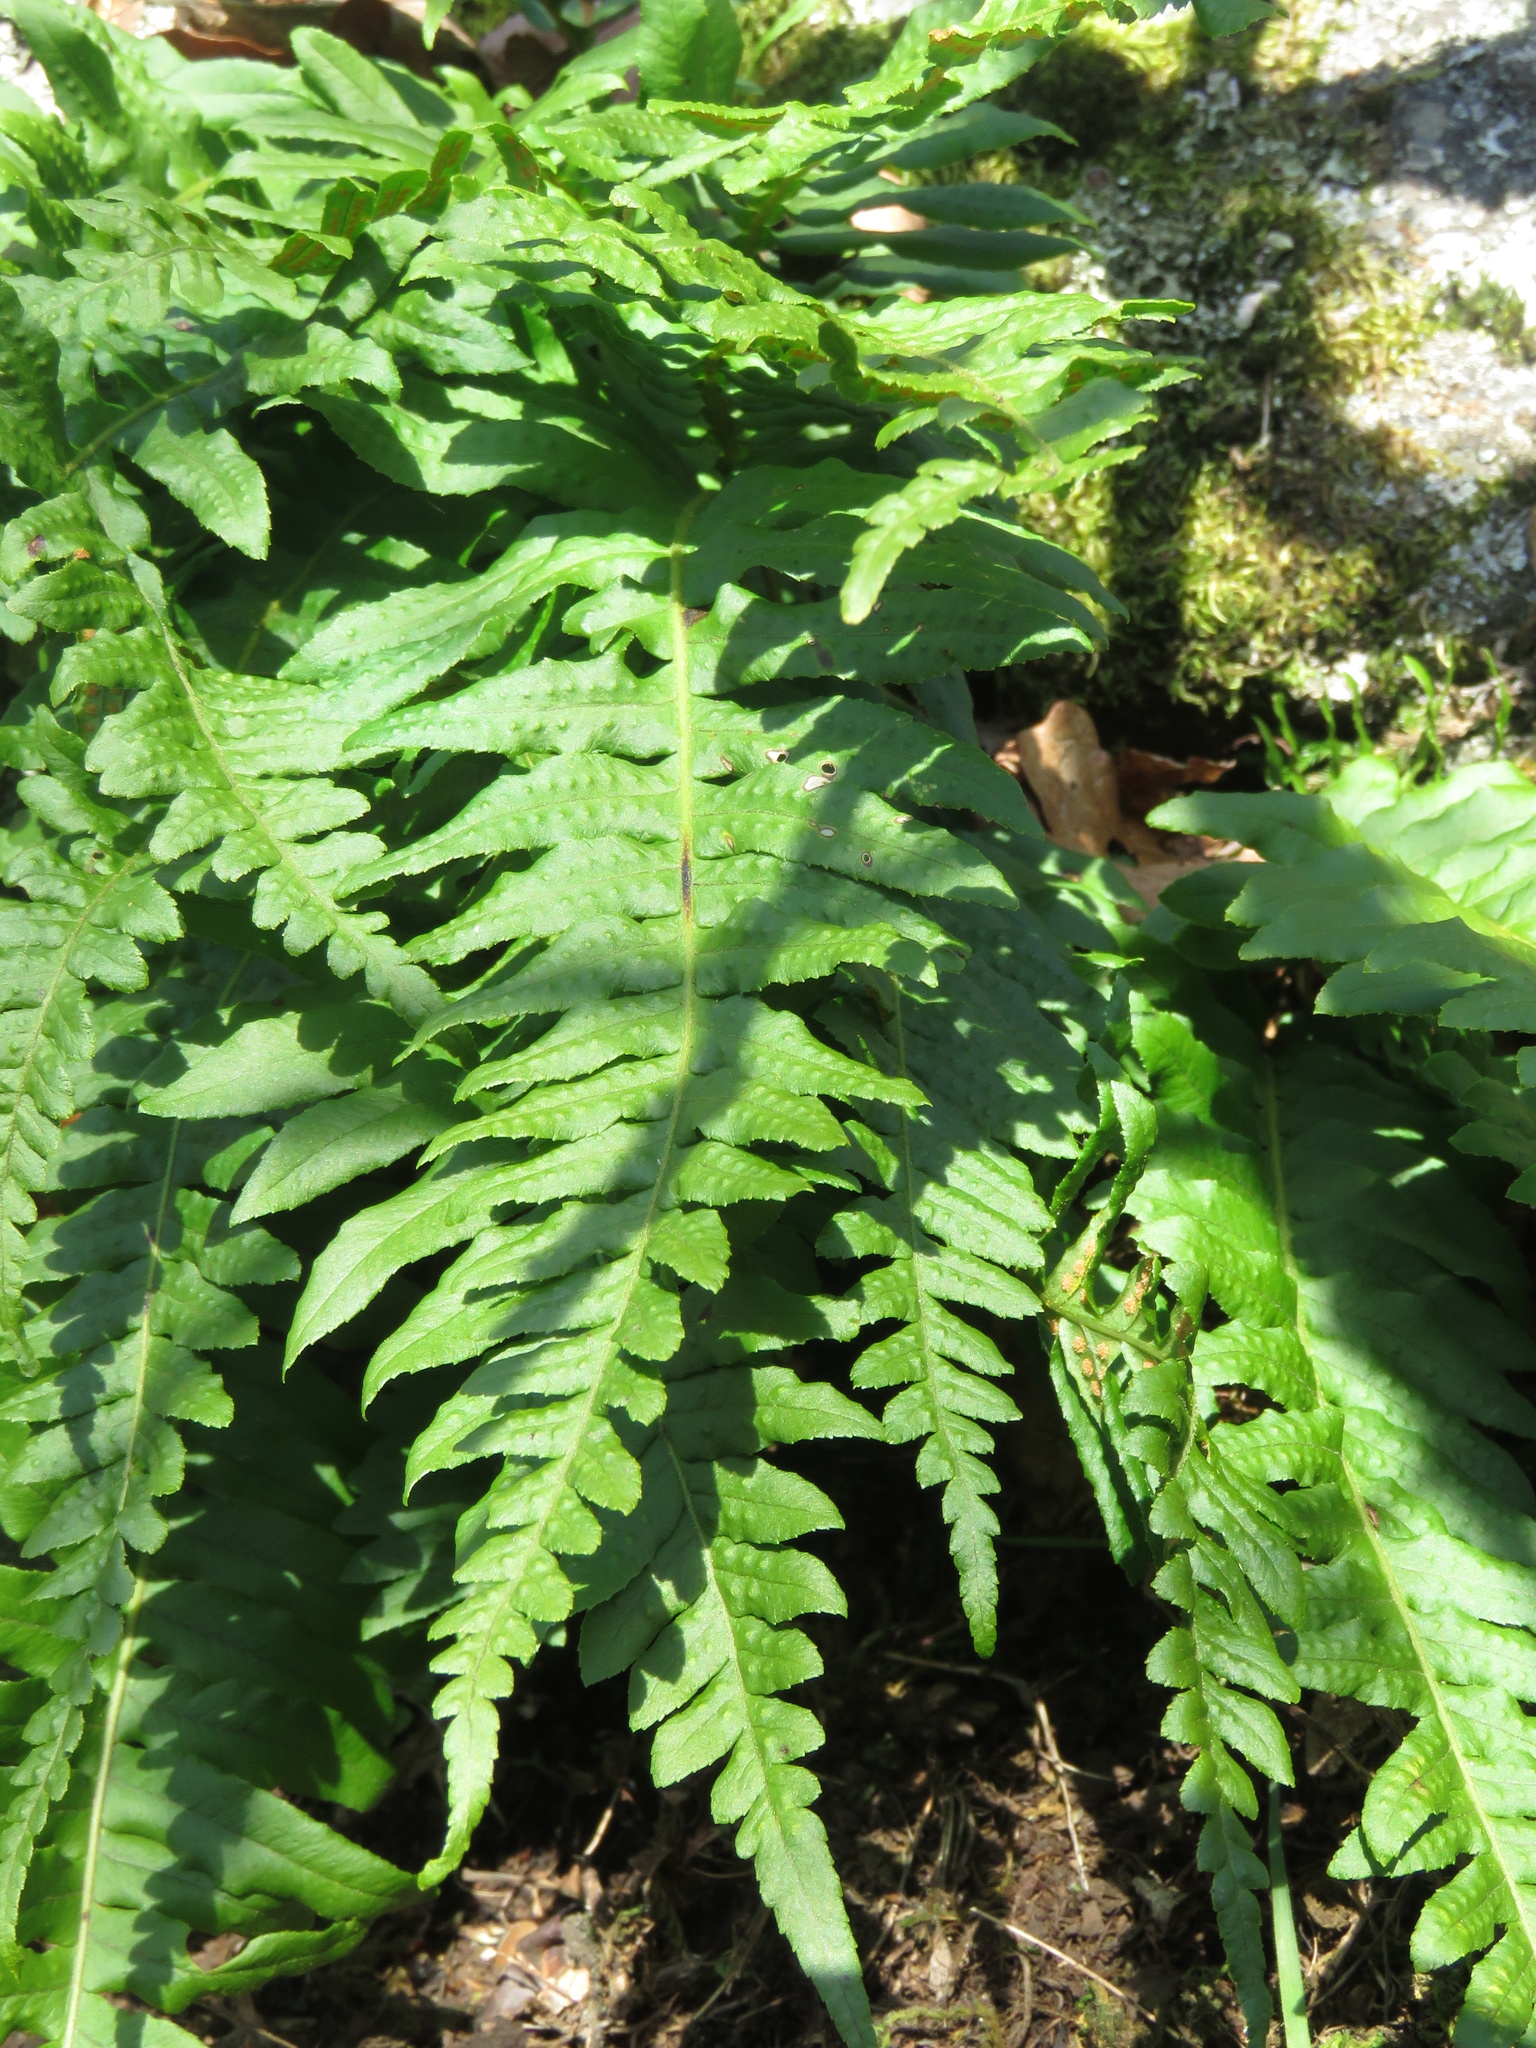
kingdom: Plantae
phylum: Tracheophyta
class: Polypodiopsida
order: Polypodiales
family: Polypodiaceae
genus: Polypodium
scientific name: Polypodium glycyrrhiza
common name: Licorice fern
